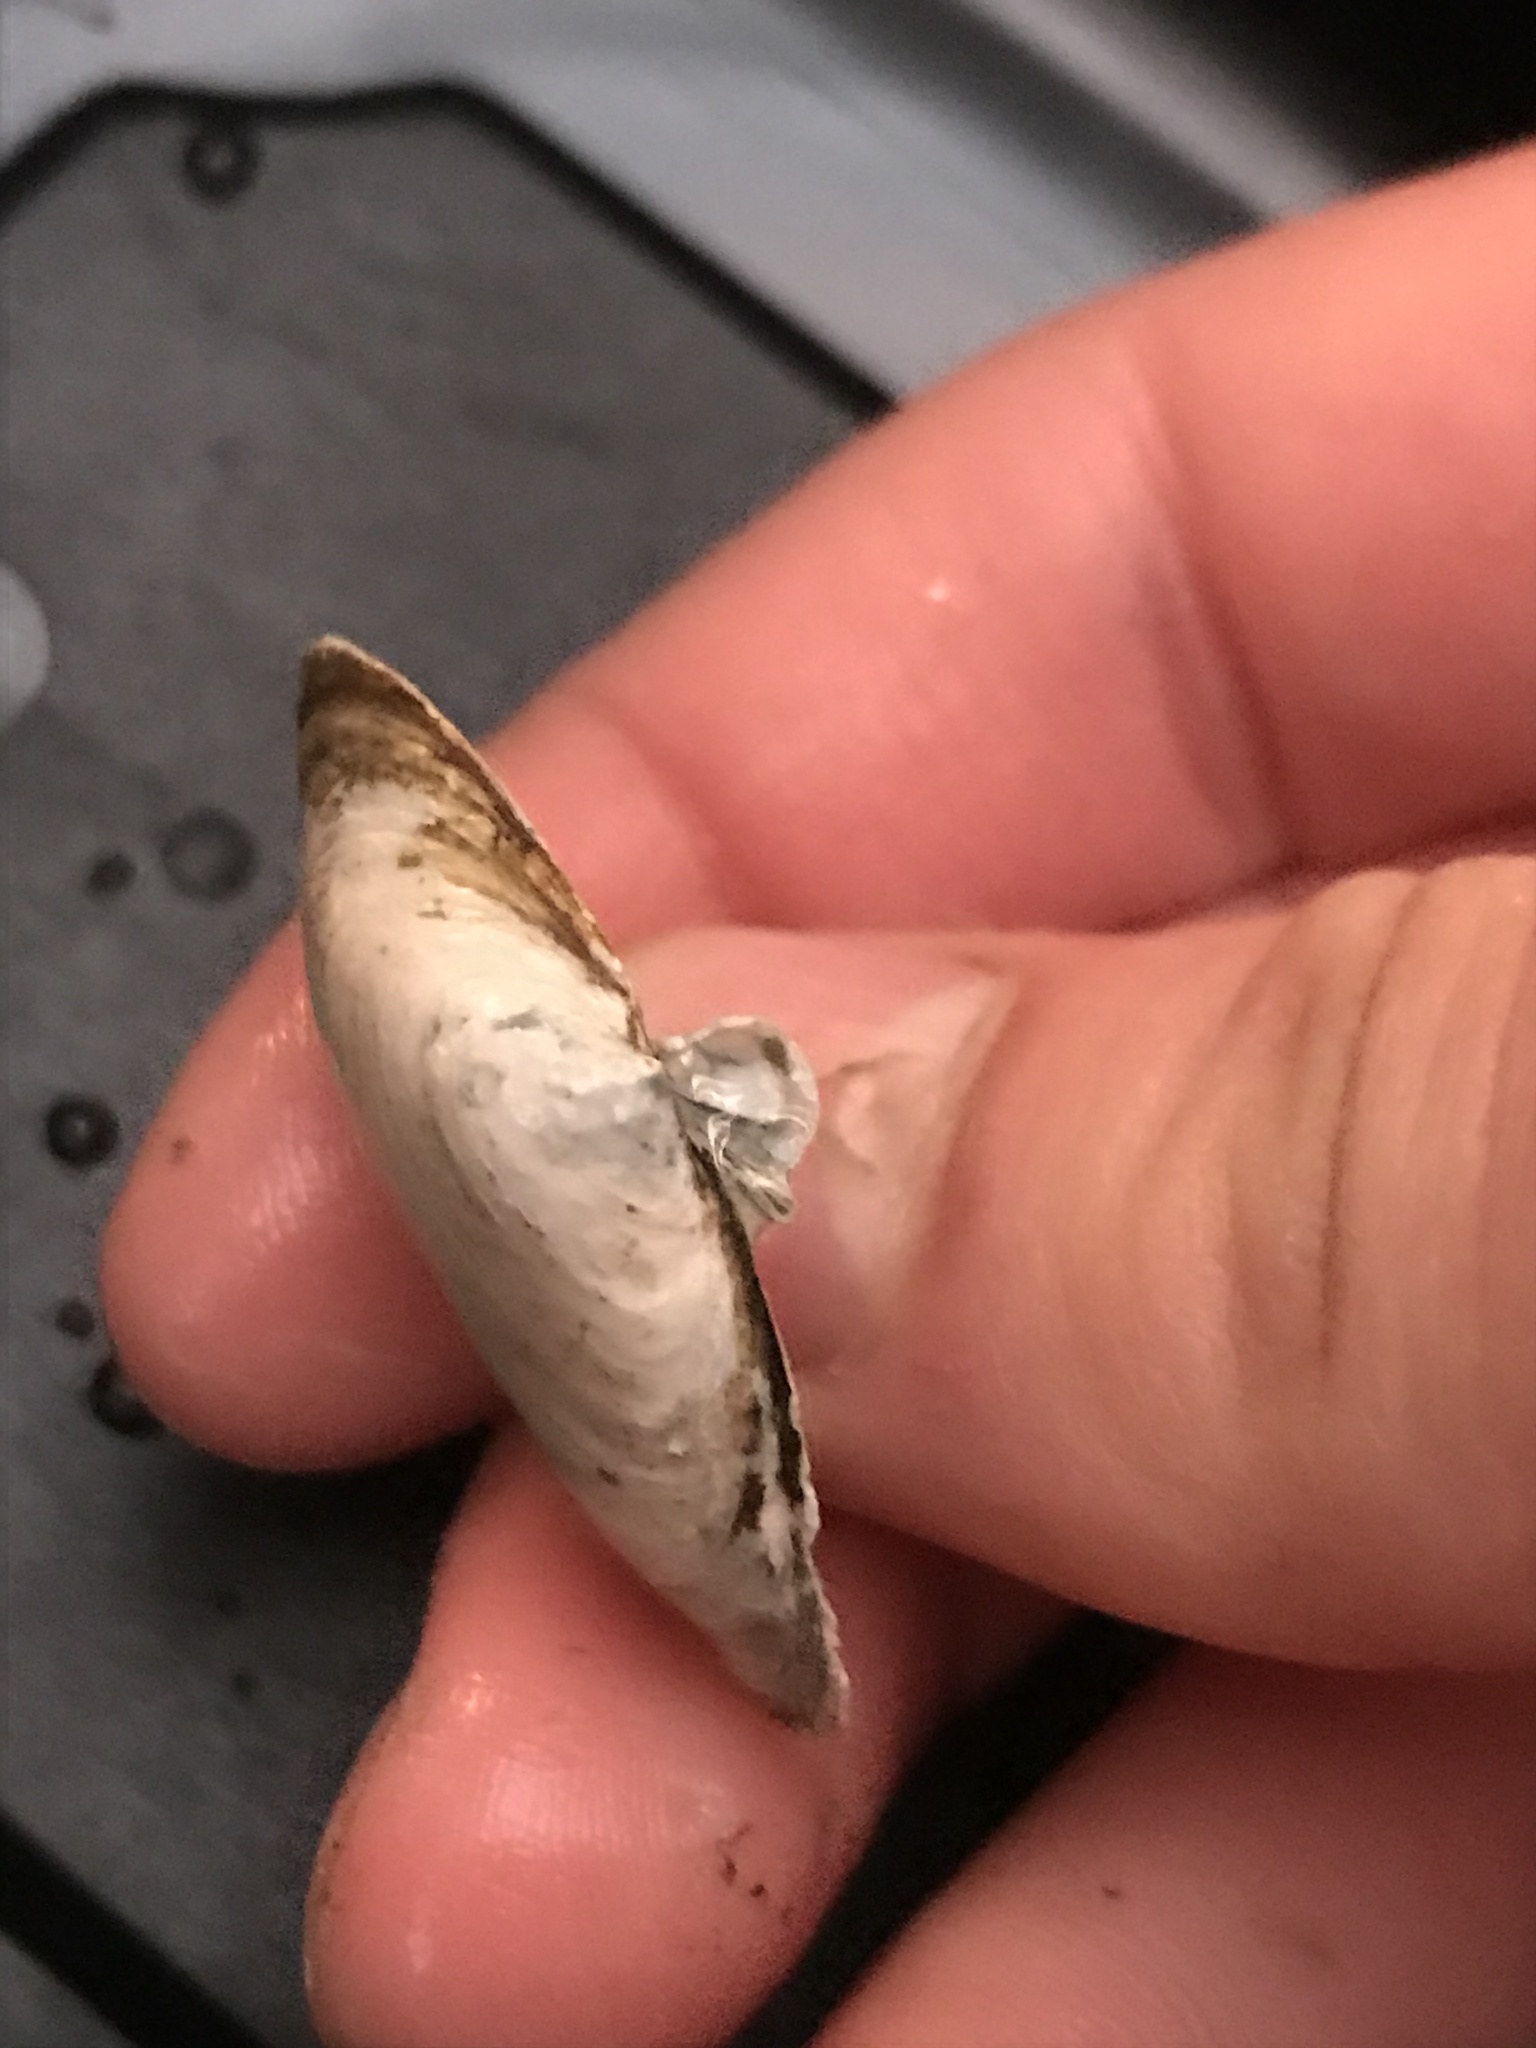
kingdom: Animalia
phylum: Mollusca
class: Bivalvia
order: Myida
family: Myidae
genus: Mya
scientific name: Mya arenaria
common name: Soft-shelled clam
